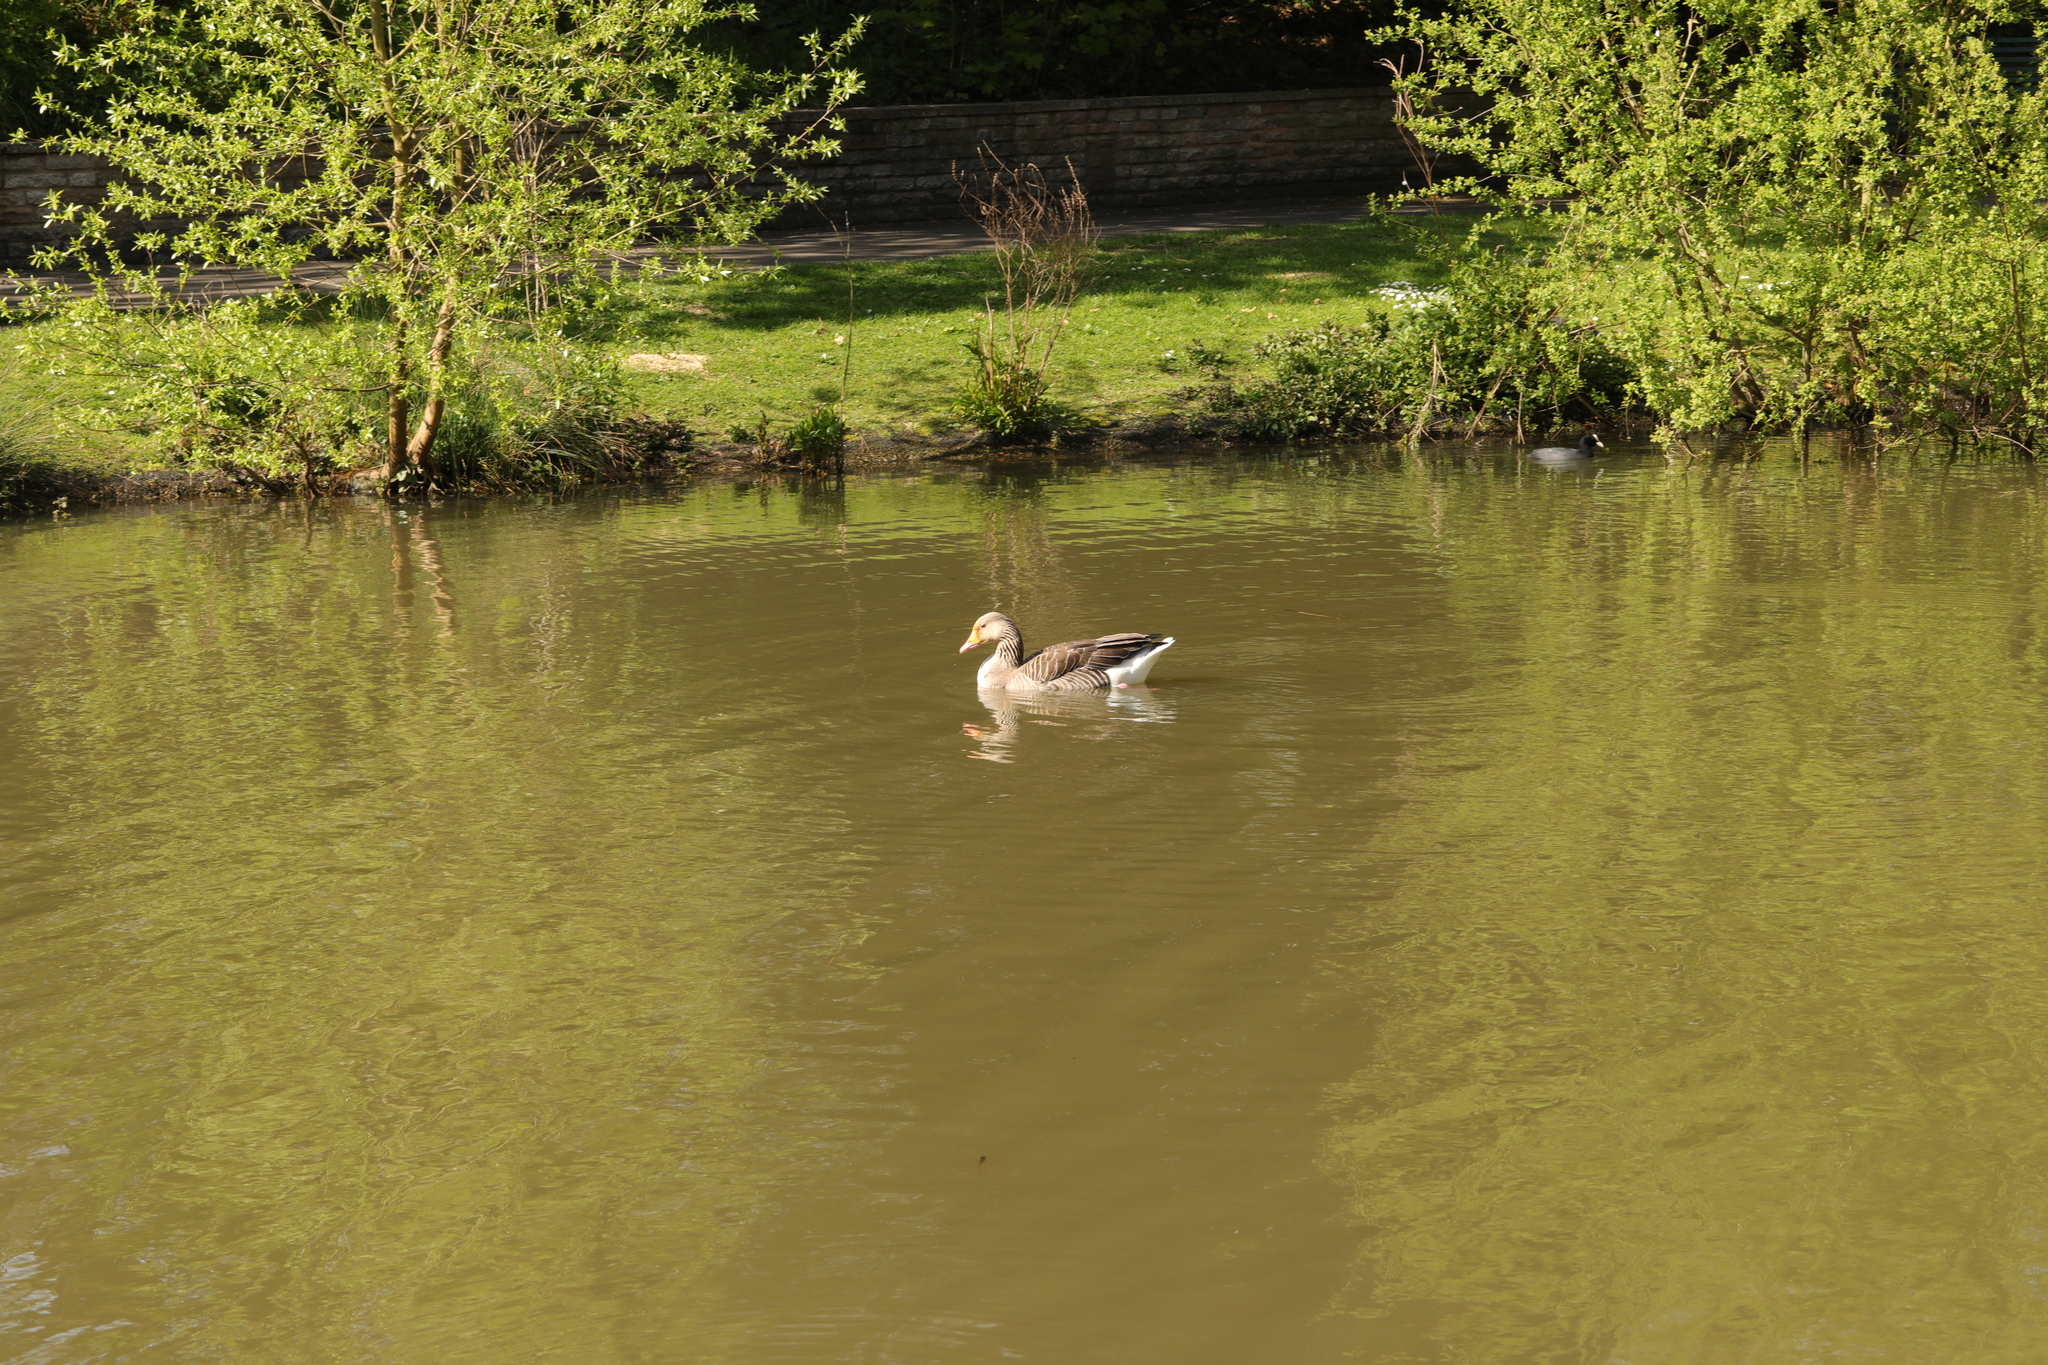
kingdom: Animalia
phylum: Chordata
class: Aves
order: Anseriformes
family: Anatidae
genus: Anser
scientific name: Anser anser
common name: Greylag goose
